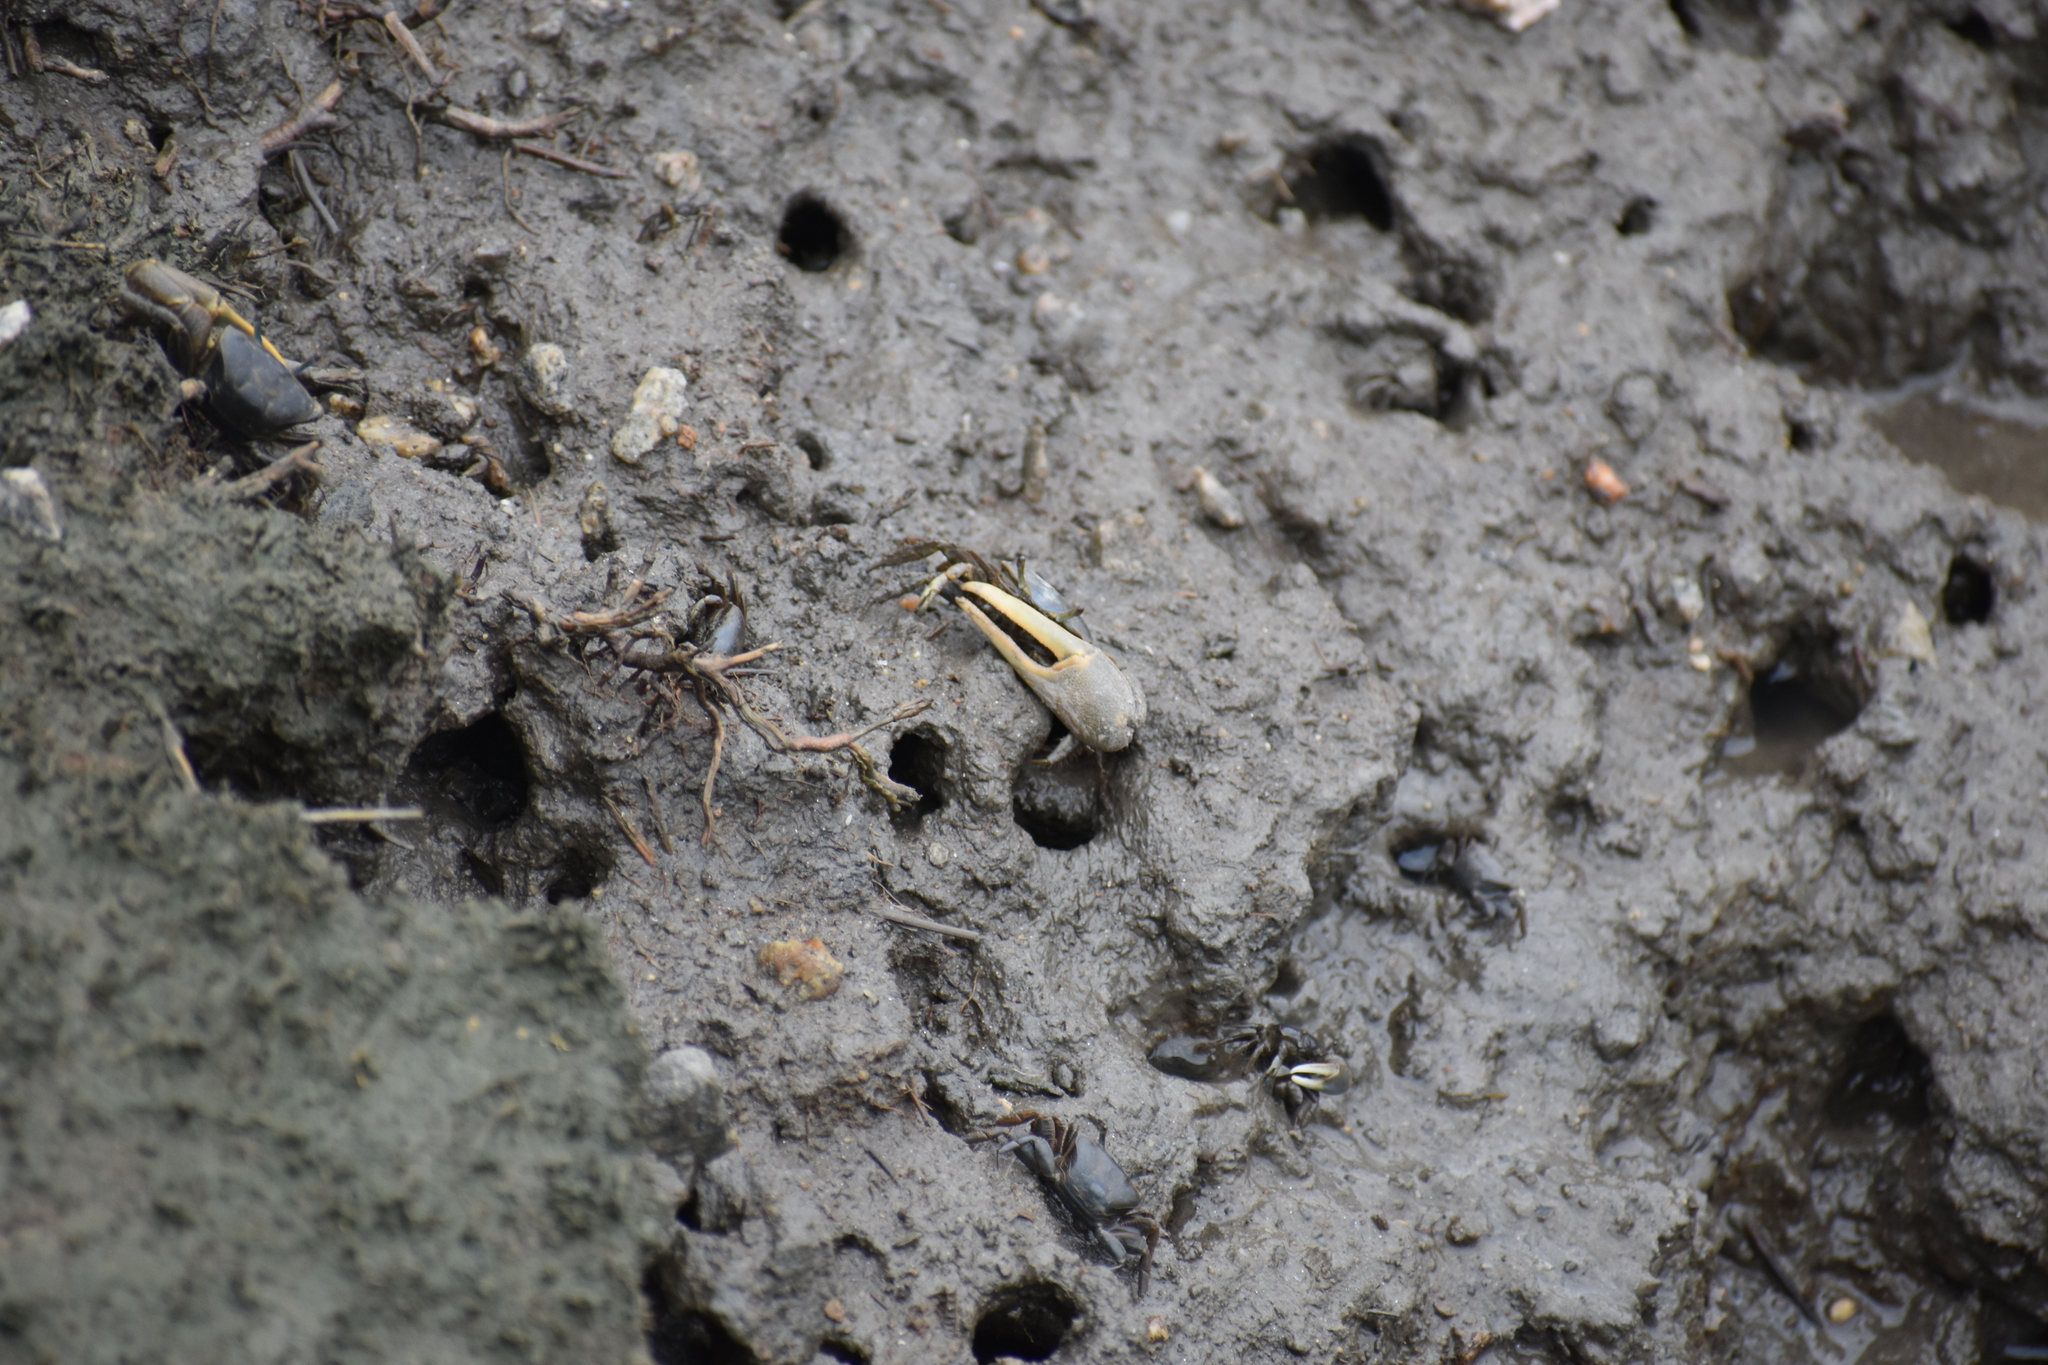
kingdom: Animalia
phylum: Arthropoda
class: Malacostraca
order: Decapoda
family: Ocypodidae
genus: Minuca
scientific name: Minuca pugnax
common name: Mud fiddler crab
